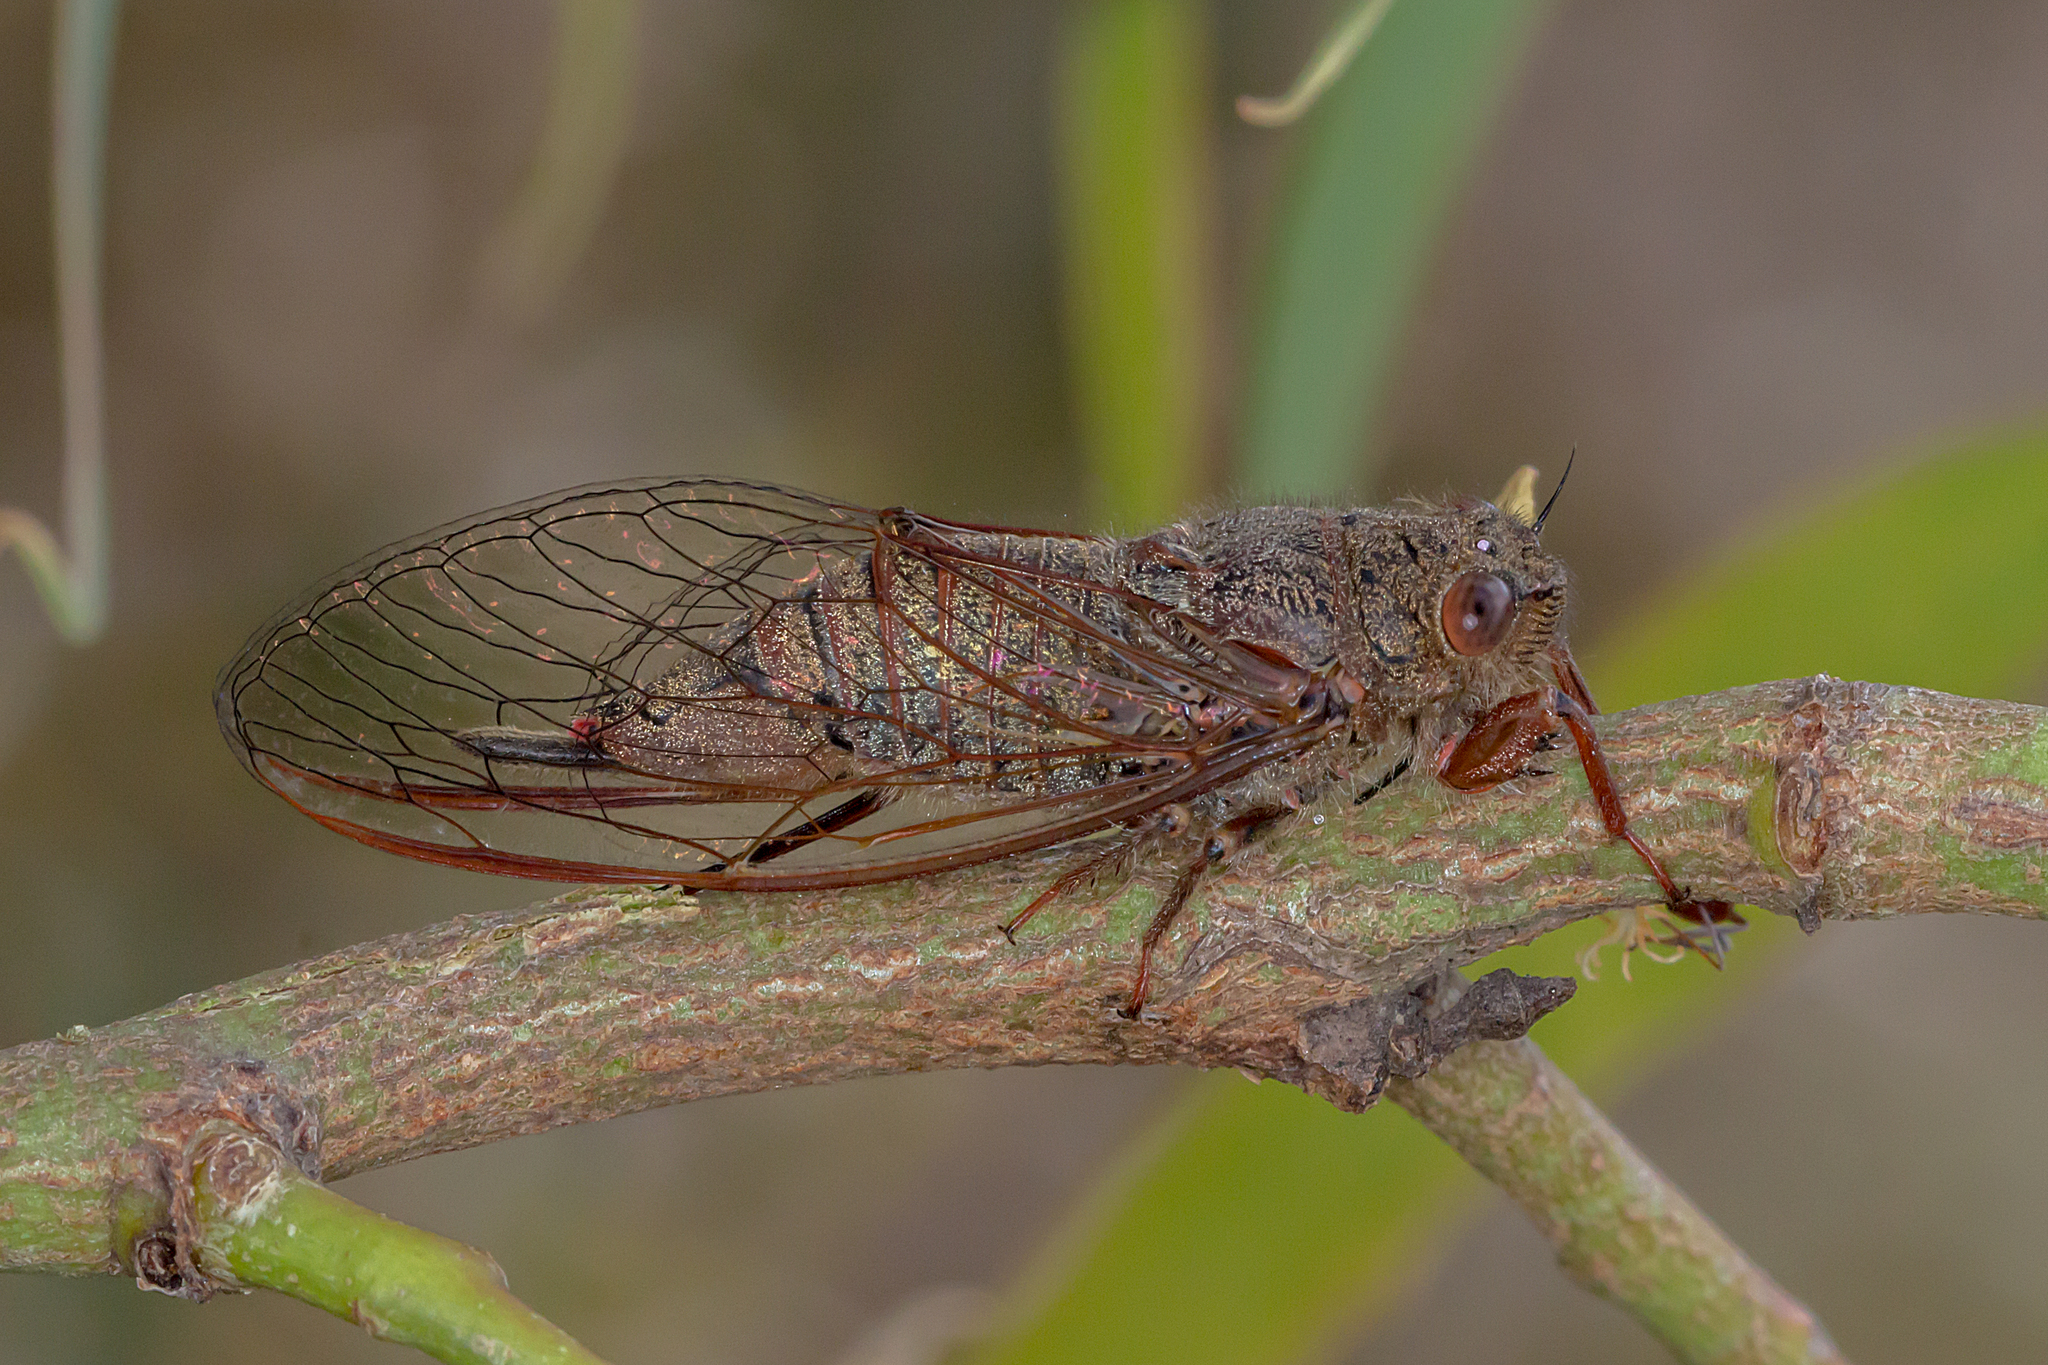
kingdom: Animalia
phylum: Arthropoda
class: Insecta
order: Hemiptera
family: Cicadidae
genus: Popplepsalta
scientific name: Popplepsalta rubristrigata
